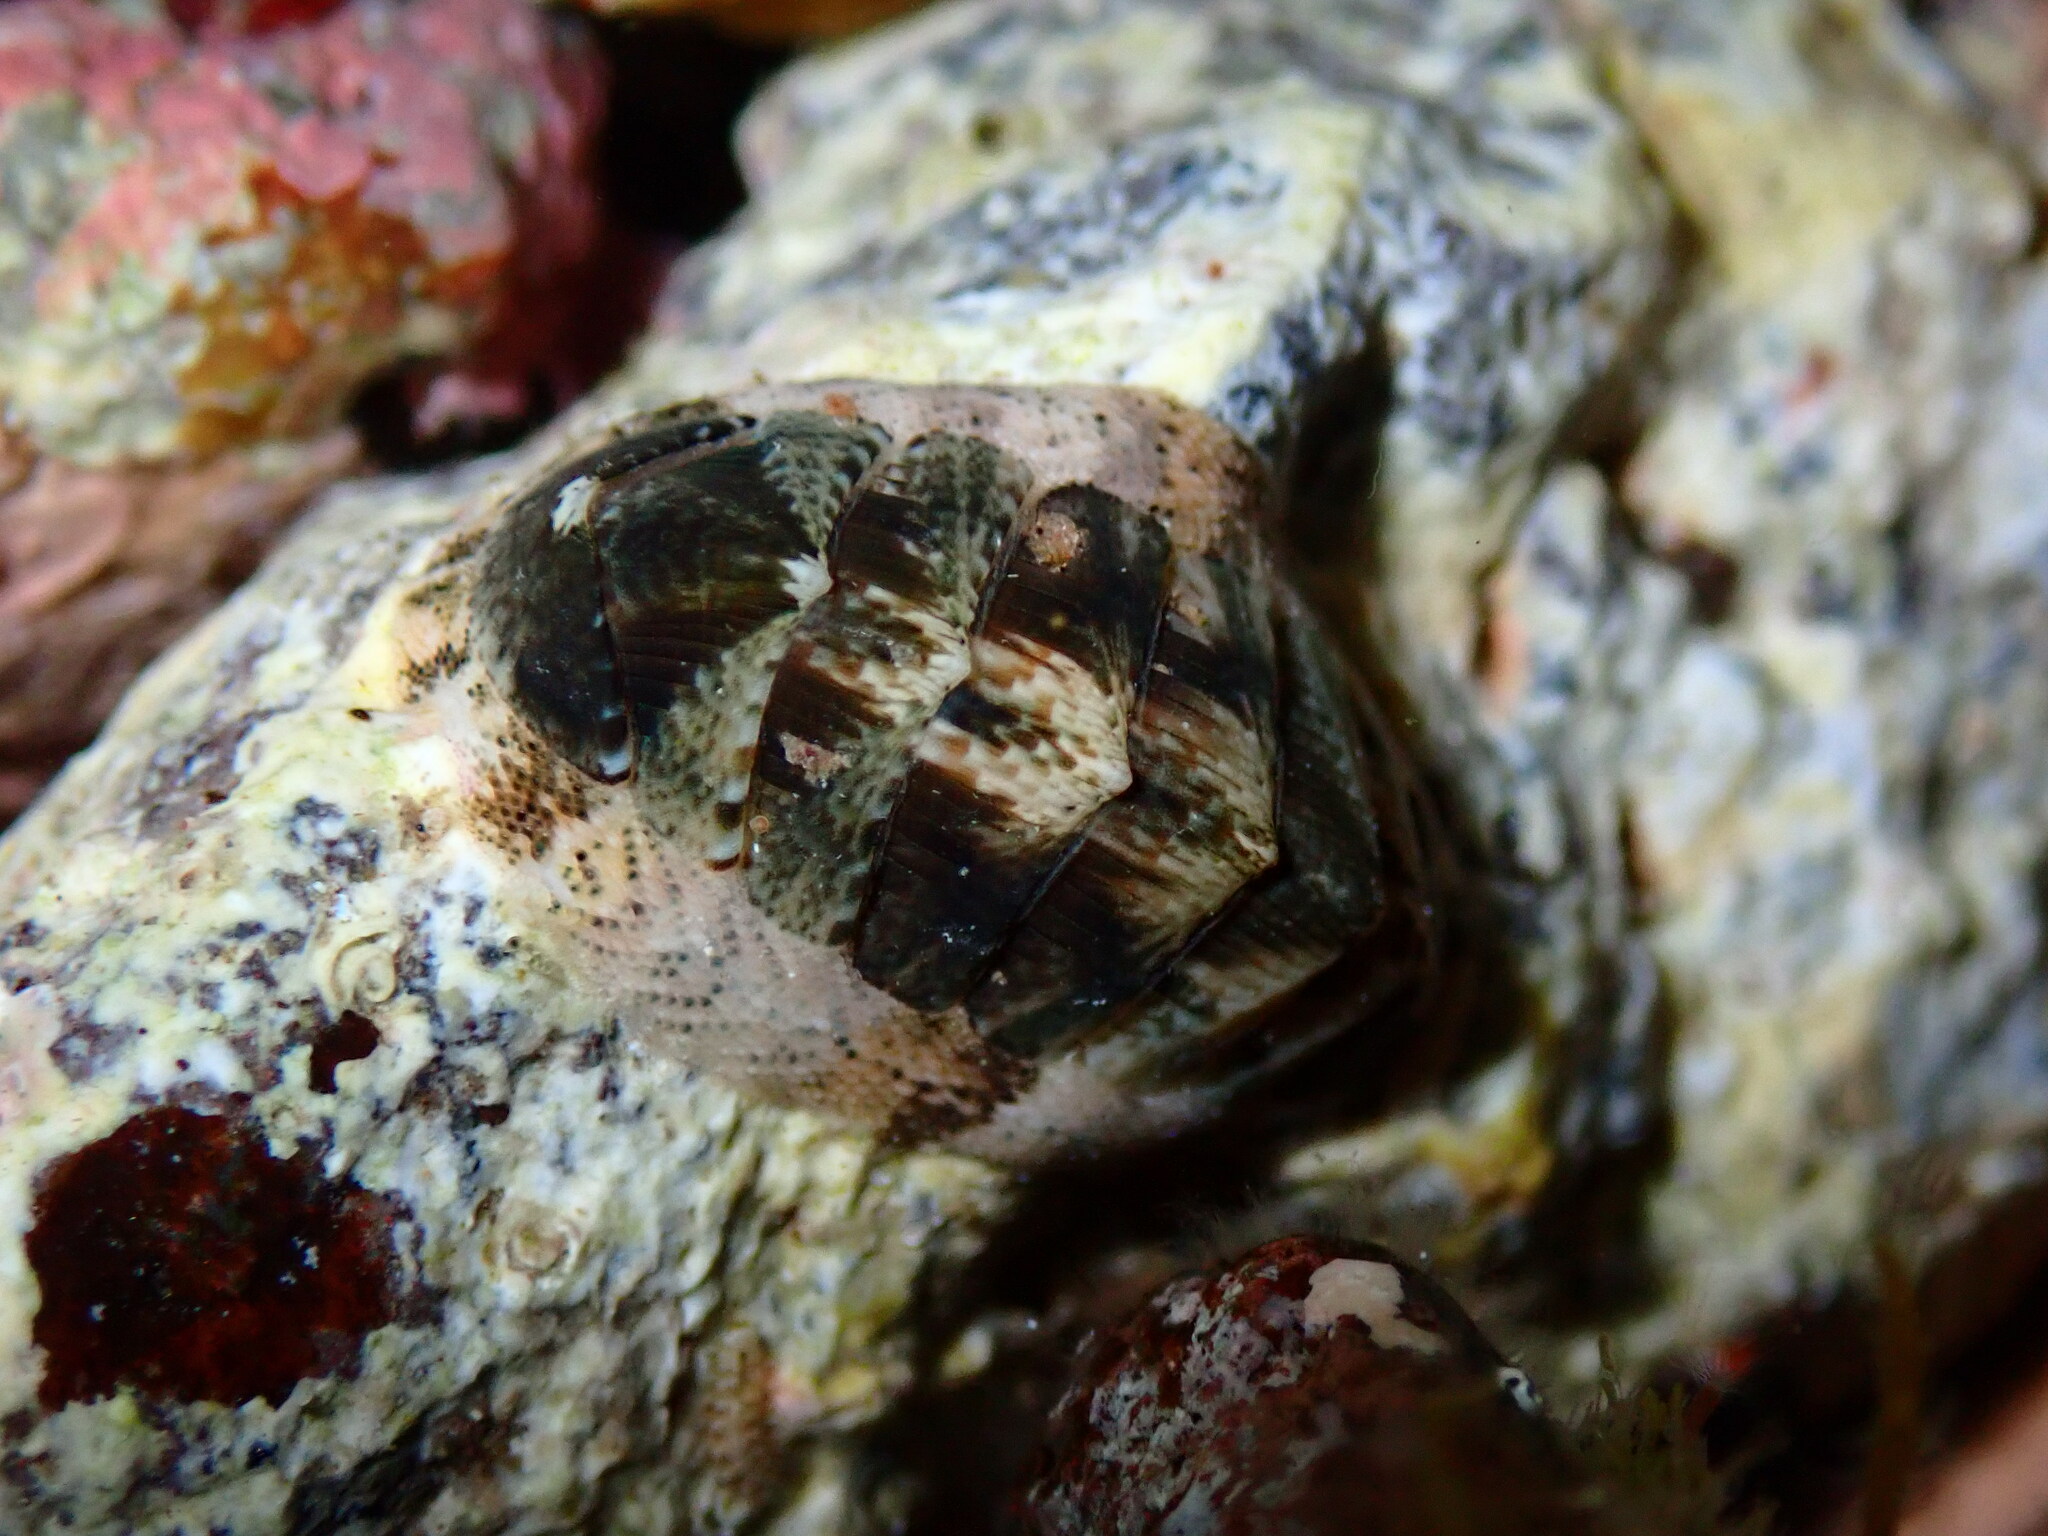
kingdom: Animalia
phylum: Mollusca
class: Polyplacophora
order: Chitonida
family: Chitonidae
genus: Rhyssoplax
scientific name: Rhyssoplax canariensis
